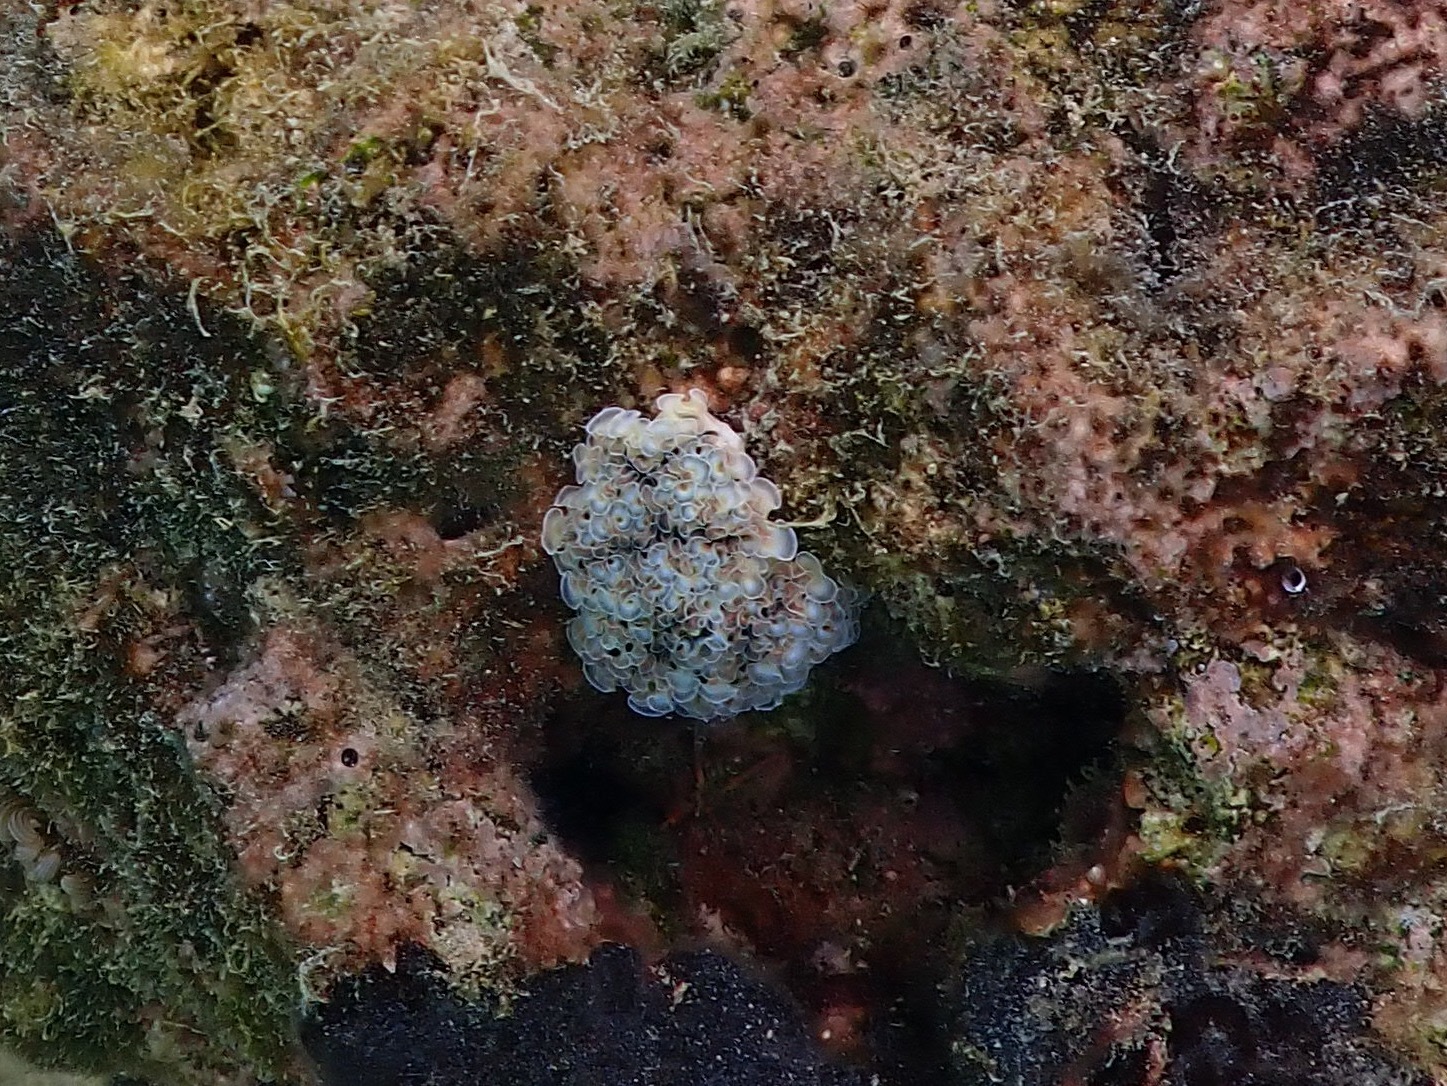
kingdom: Animalia
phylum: Mollusca
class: Gastropoda
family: Plakobranchidae
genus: Elysia
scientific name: Elysia crispata
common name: Lettuce slug
